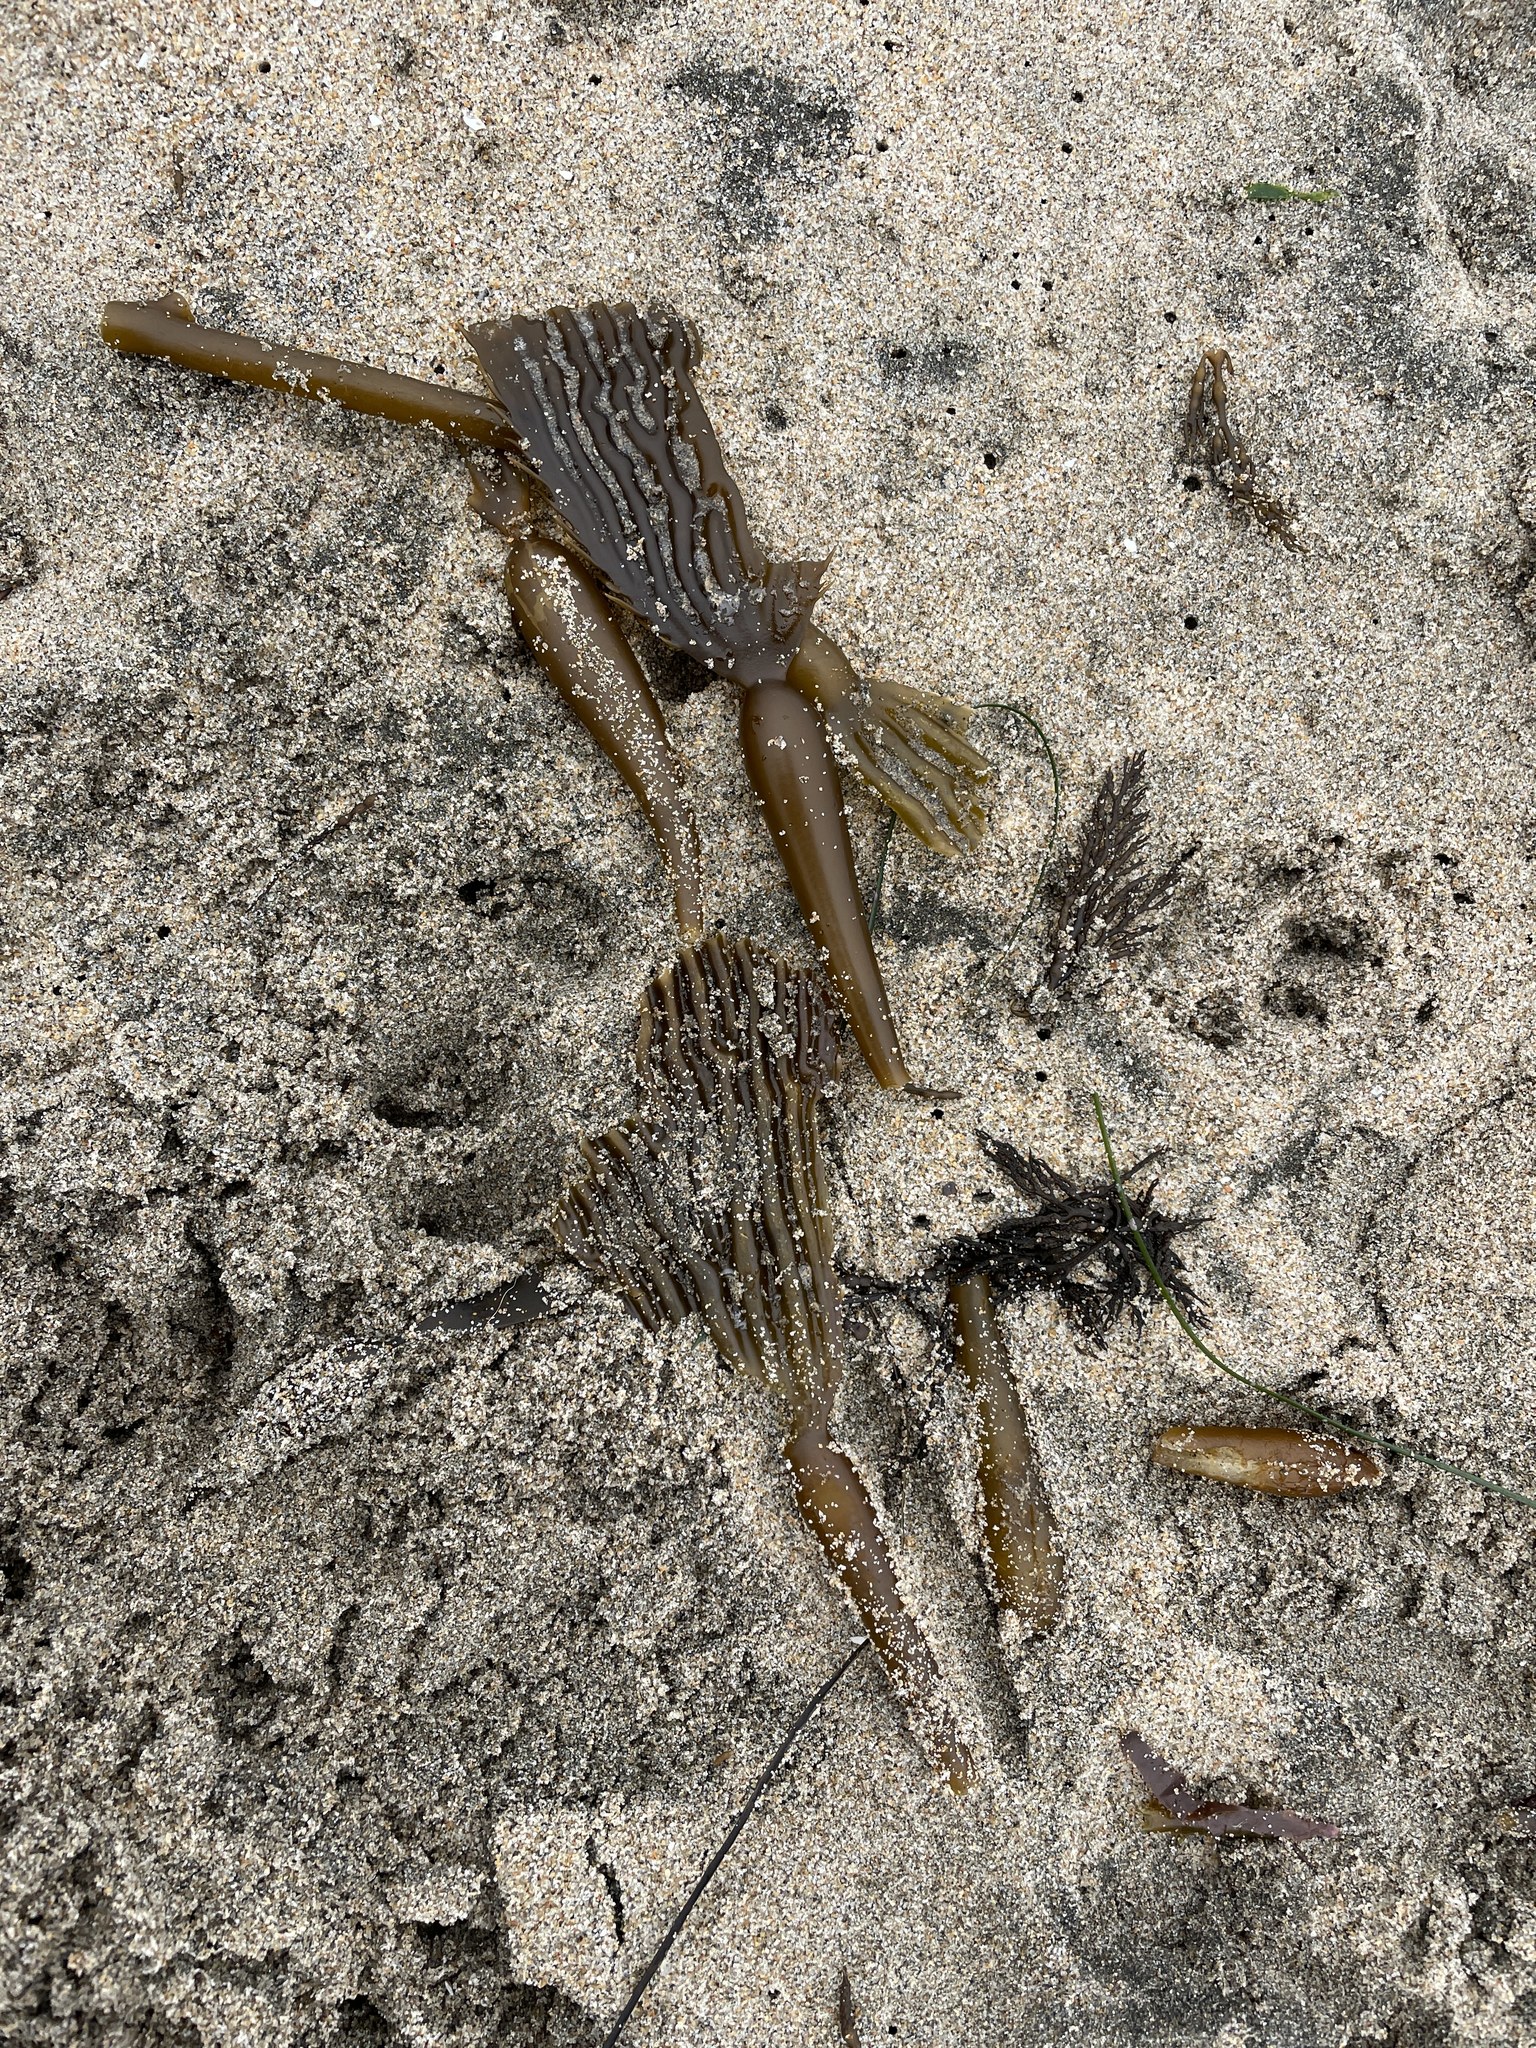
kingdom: Chromista
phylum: Ochrophyta
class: Phaeophyceae
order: Laminariales
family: Laminariaceae
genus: Macrocystis
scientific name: Macrocystis pyrifera
